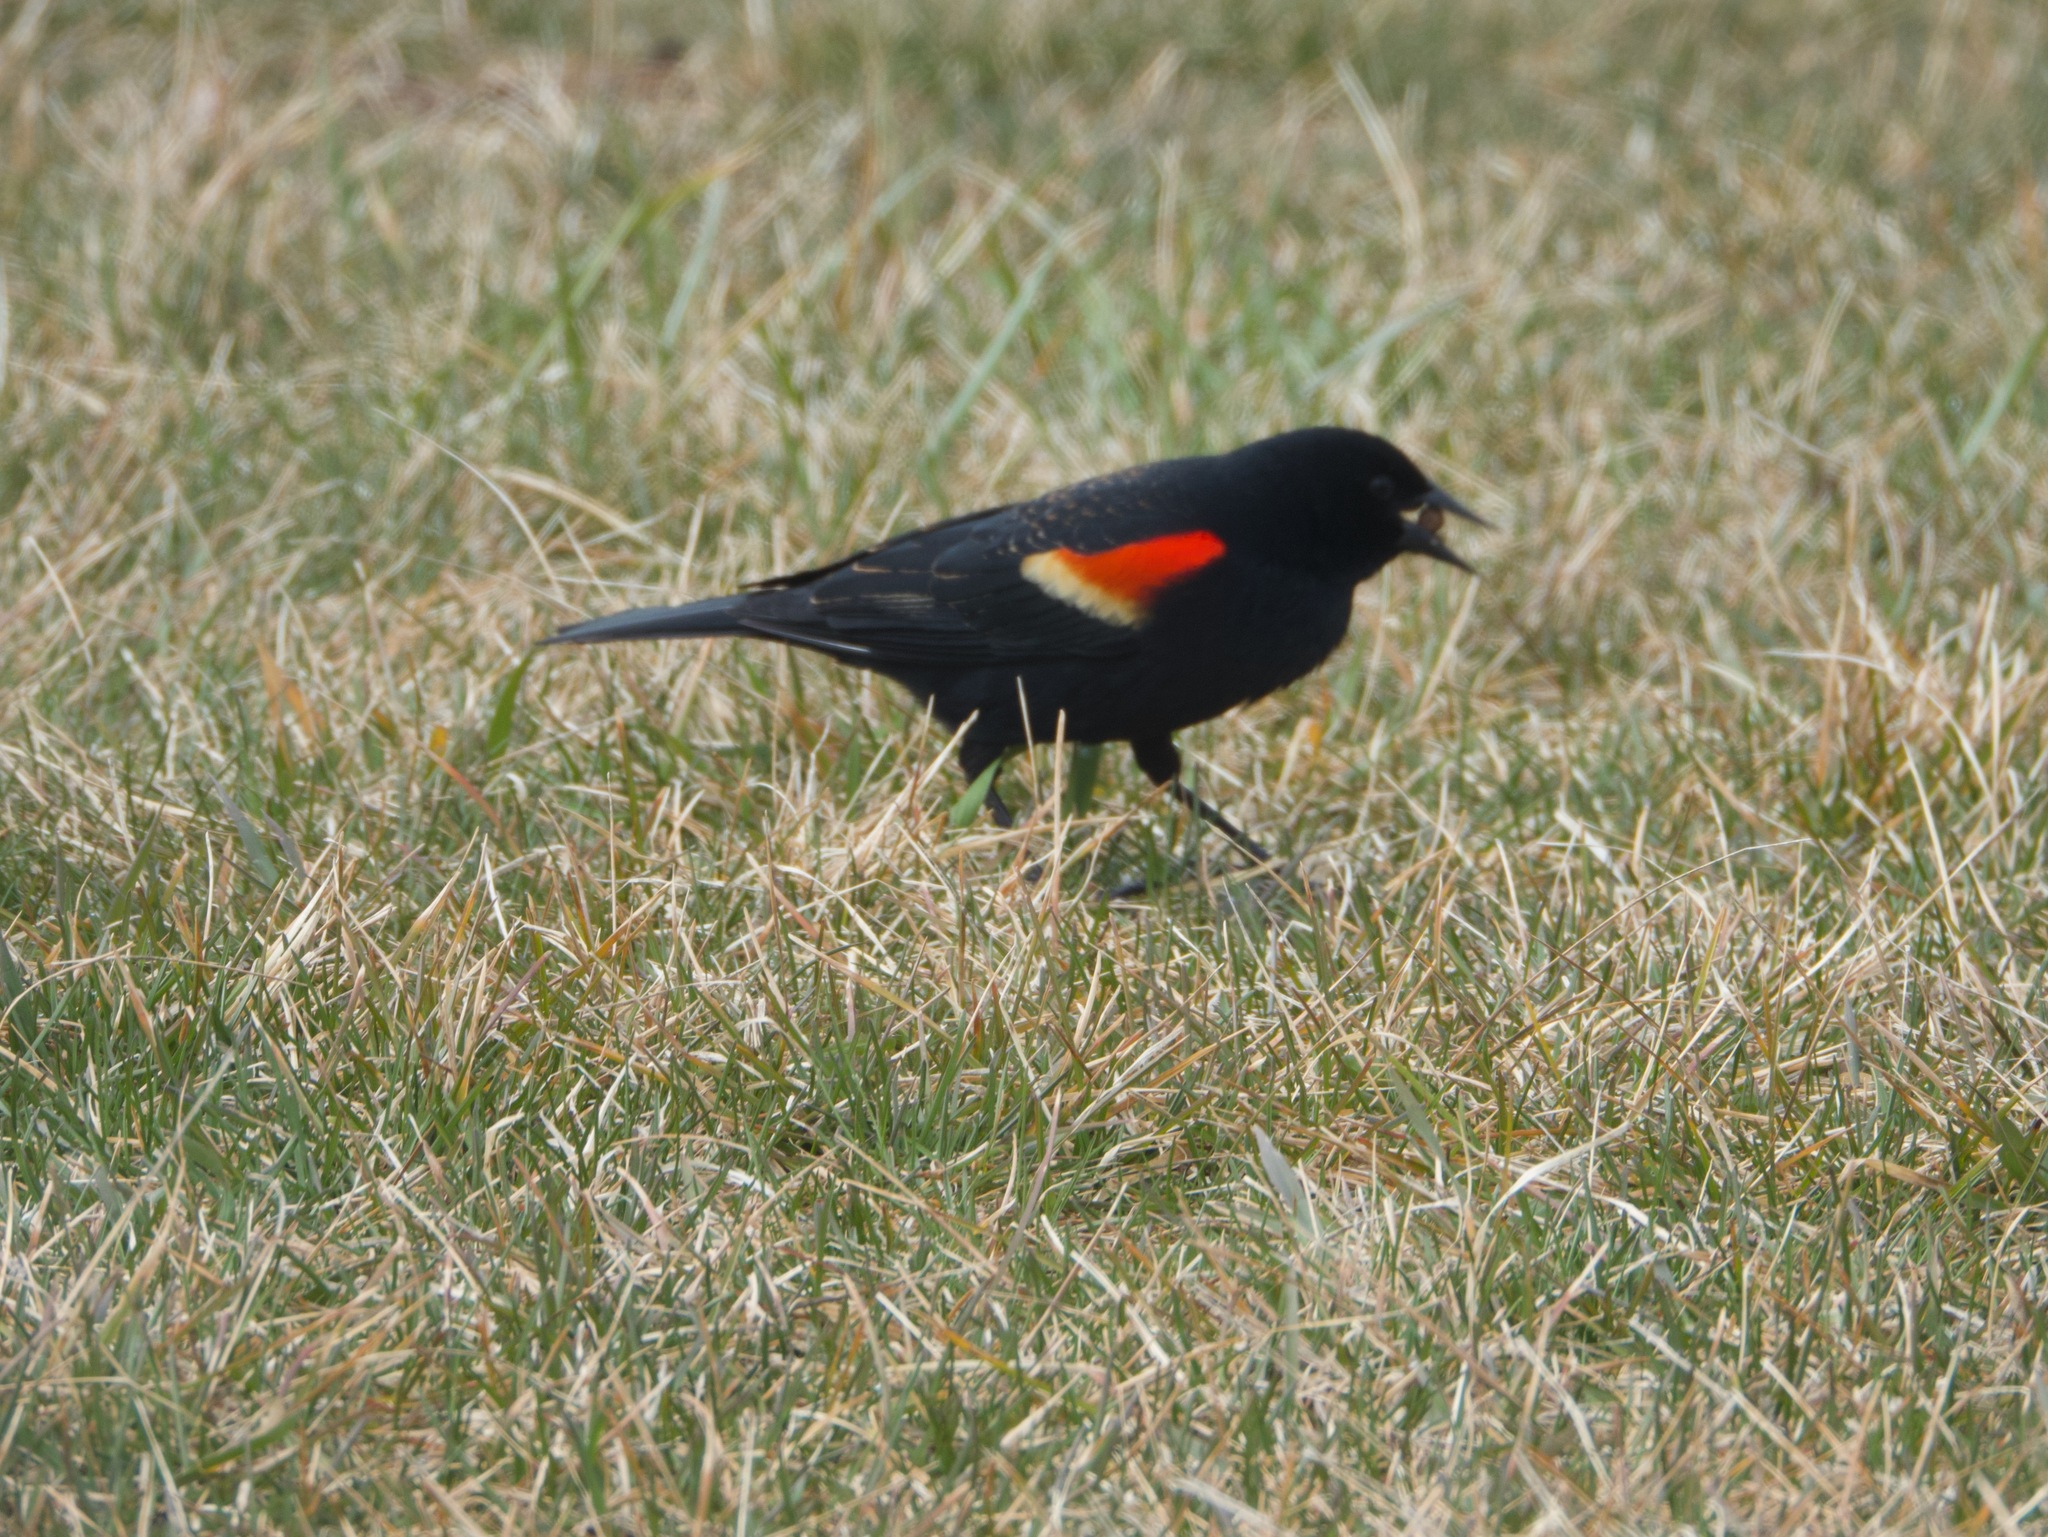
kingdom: Animalia
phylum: Chordata
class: Aves
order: Passeriformes
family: Icteridae
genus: Agelaius
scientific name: Agelaius phoeniceus
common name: Red-winged blackbird
